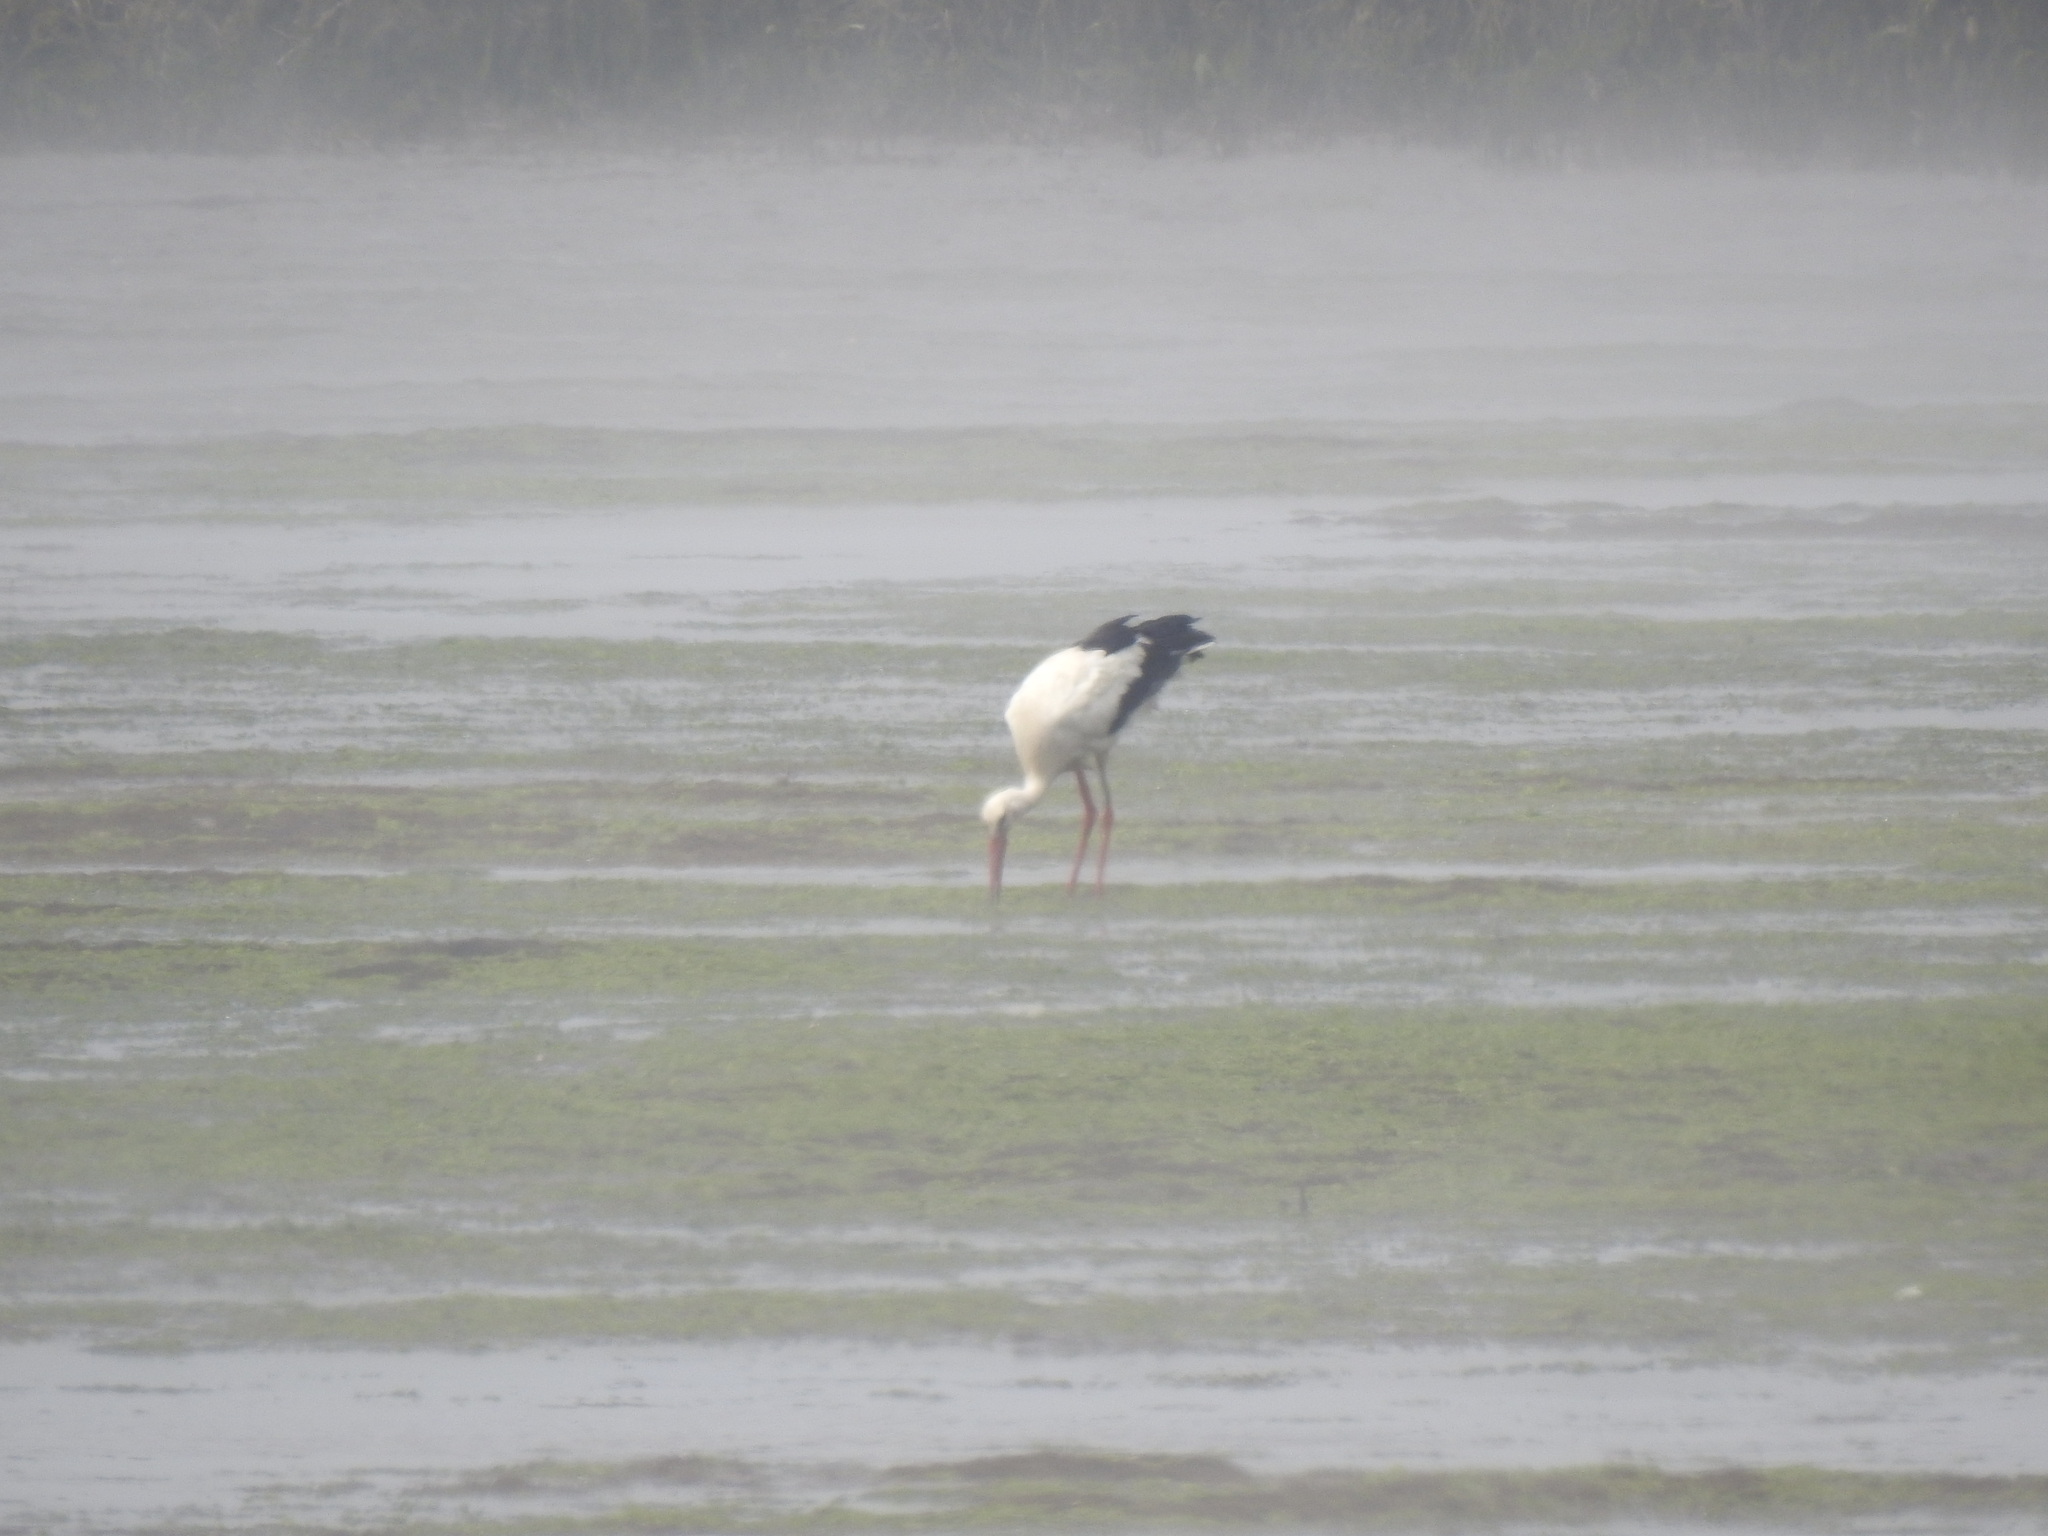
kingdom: Animalia
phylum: Chordata
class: Aves
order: Ciconiiformes
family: Ciconiidae
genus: Ciconia
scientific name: Ciconia ciconia
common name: White stork
